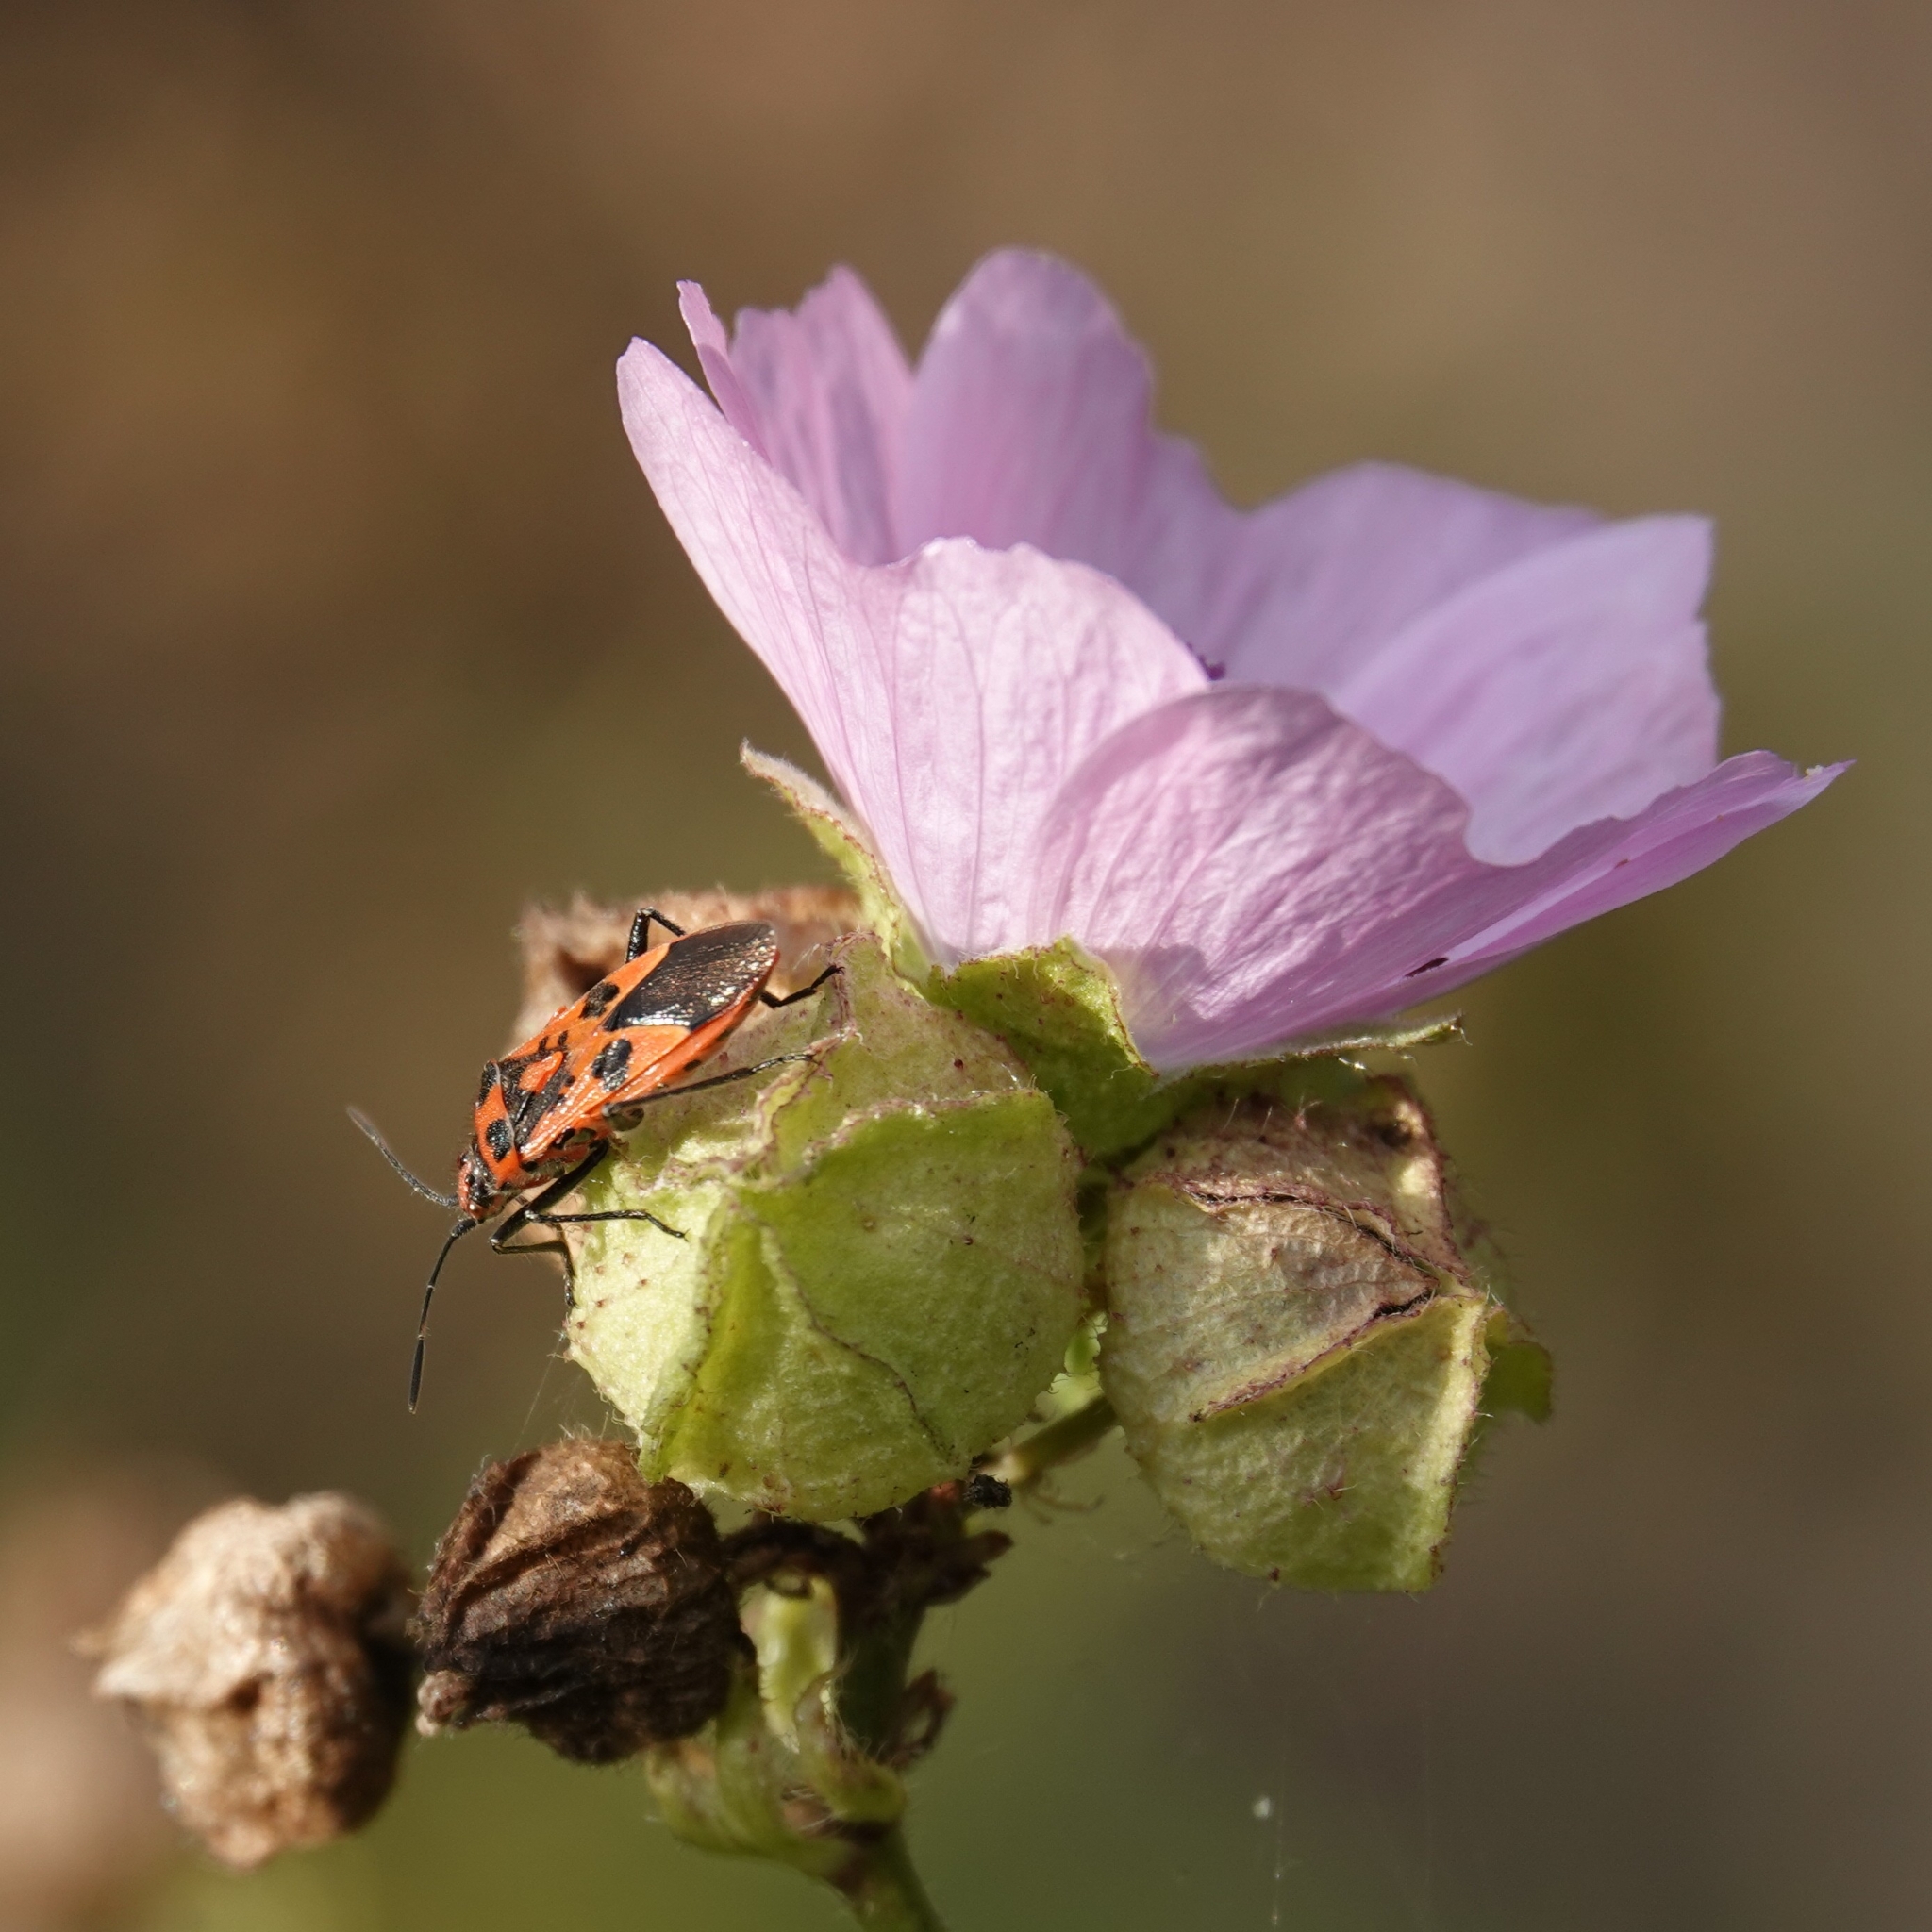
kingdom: Animalia
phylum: Arthropoda
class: Insecta
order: Hemiptera
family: Rhopalidae
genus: Corizus
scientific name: Corizus hyoscyami
